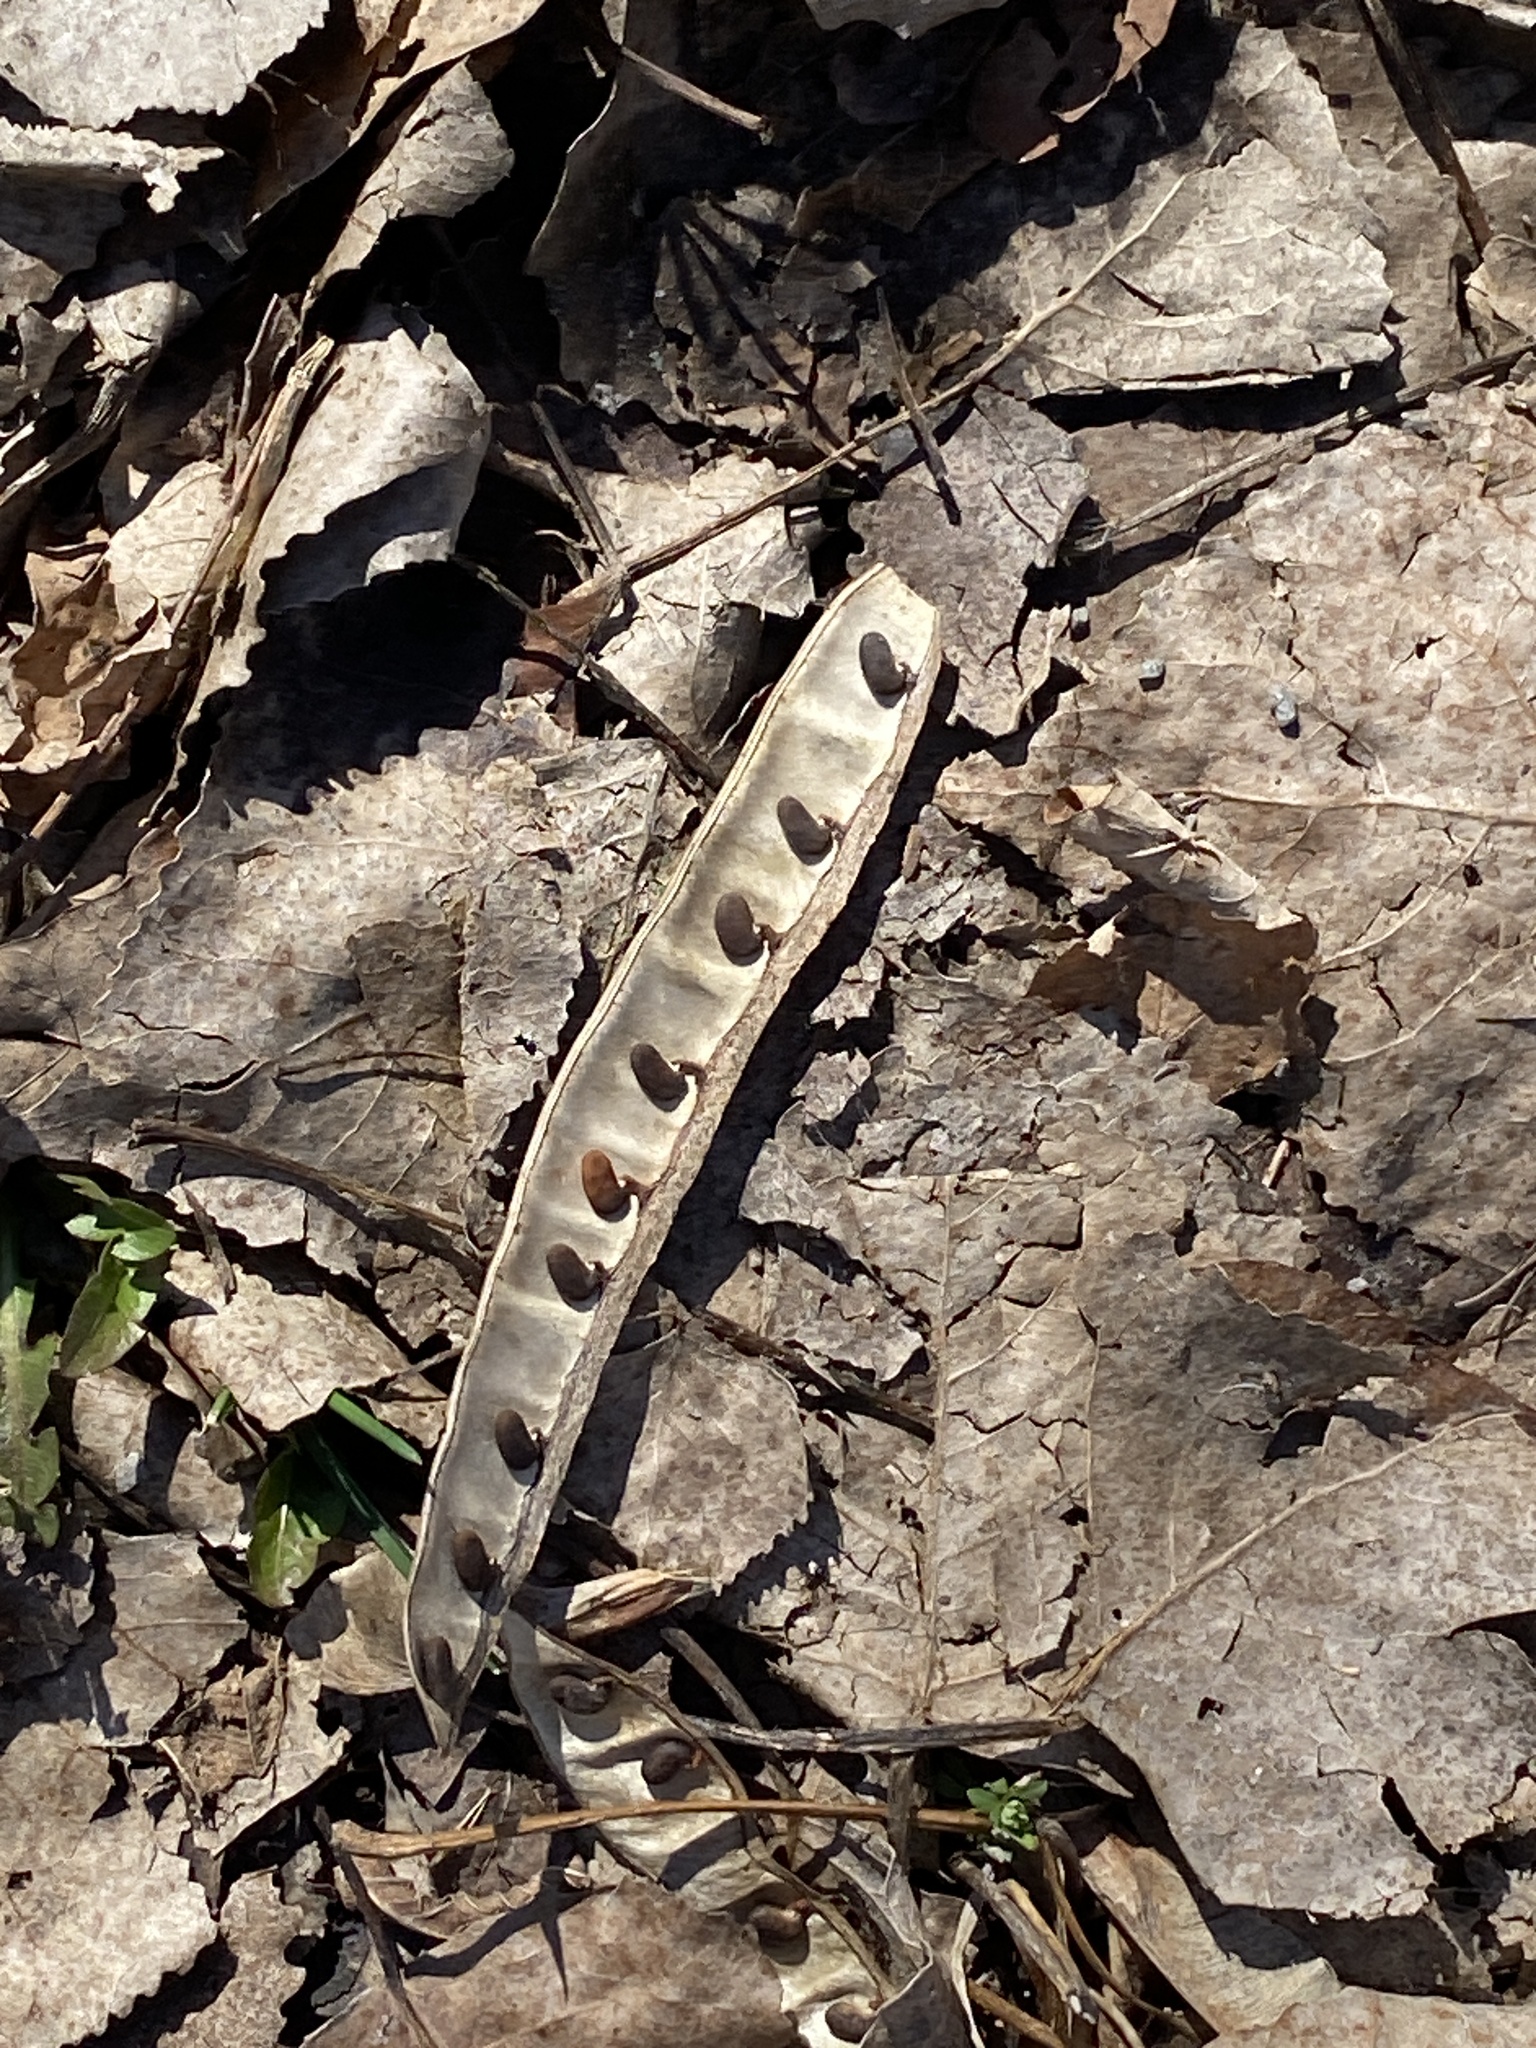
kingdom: Plantae
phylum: Tracheophyta
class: Magnoliopsida
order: Fabales
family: Fabaceae
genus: Robinia
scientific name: Robinia pseudoacacia
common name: Black locust
